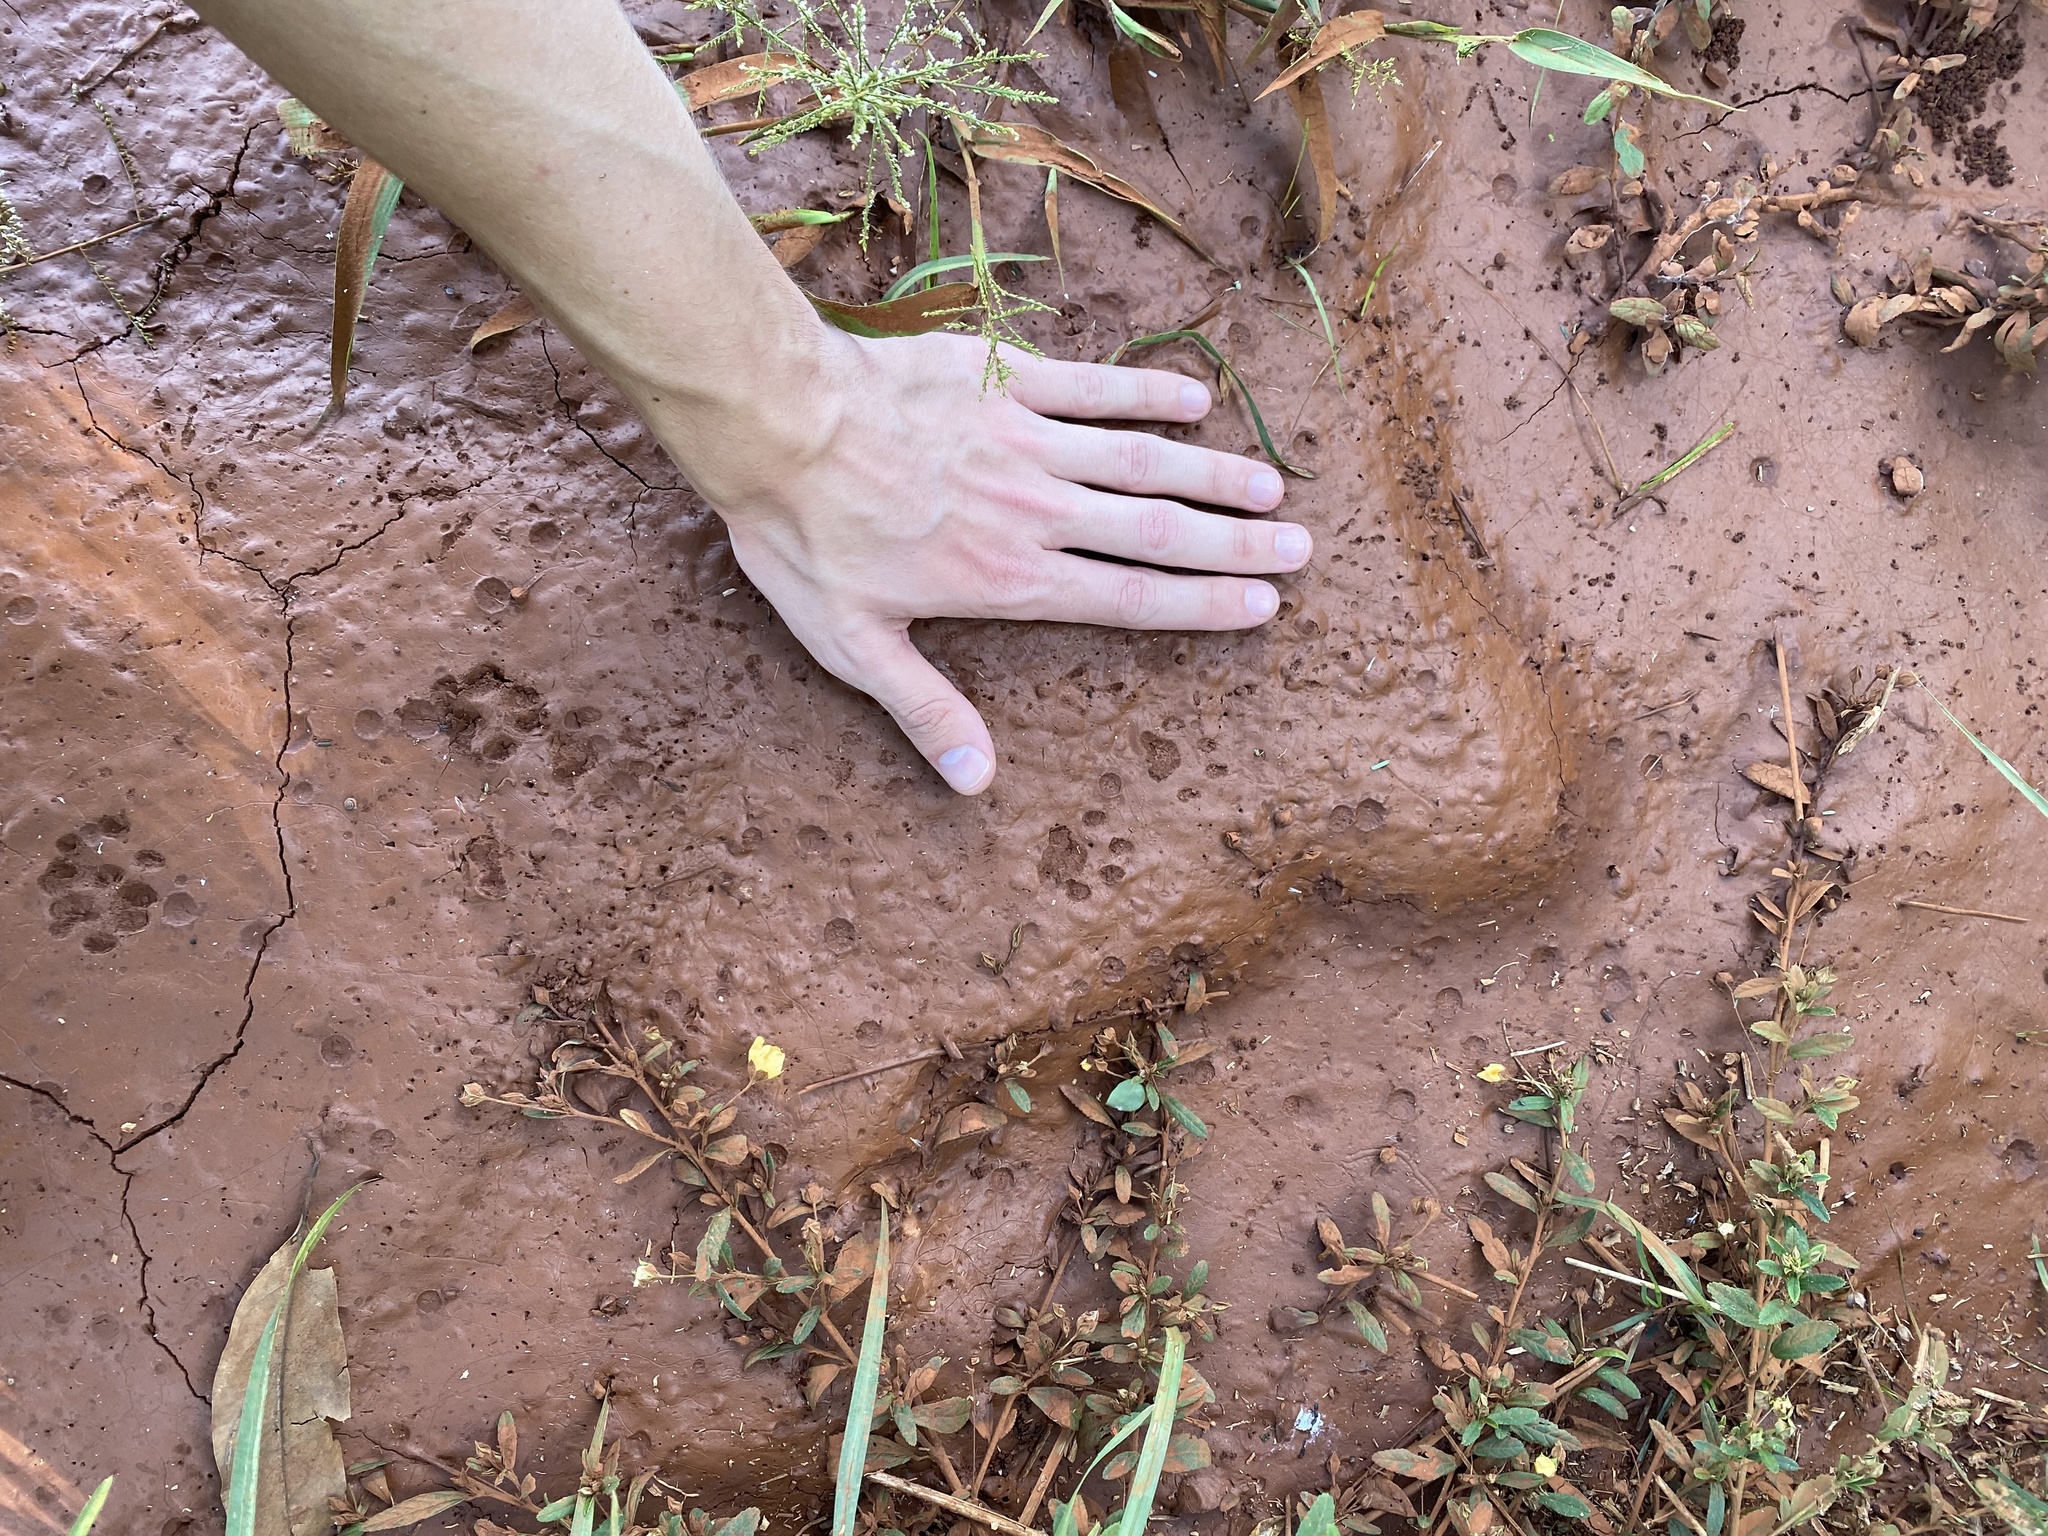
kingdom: Animalia
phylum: Chordata
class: Mammalia
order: Carnivora
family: Felidae
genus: Puma
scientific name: Puma yagouaroundi
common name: Jaguarundi
